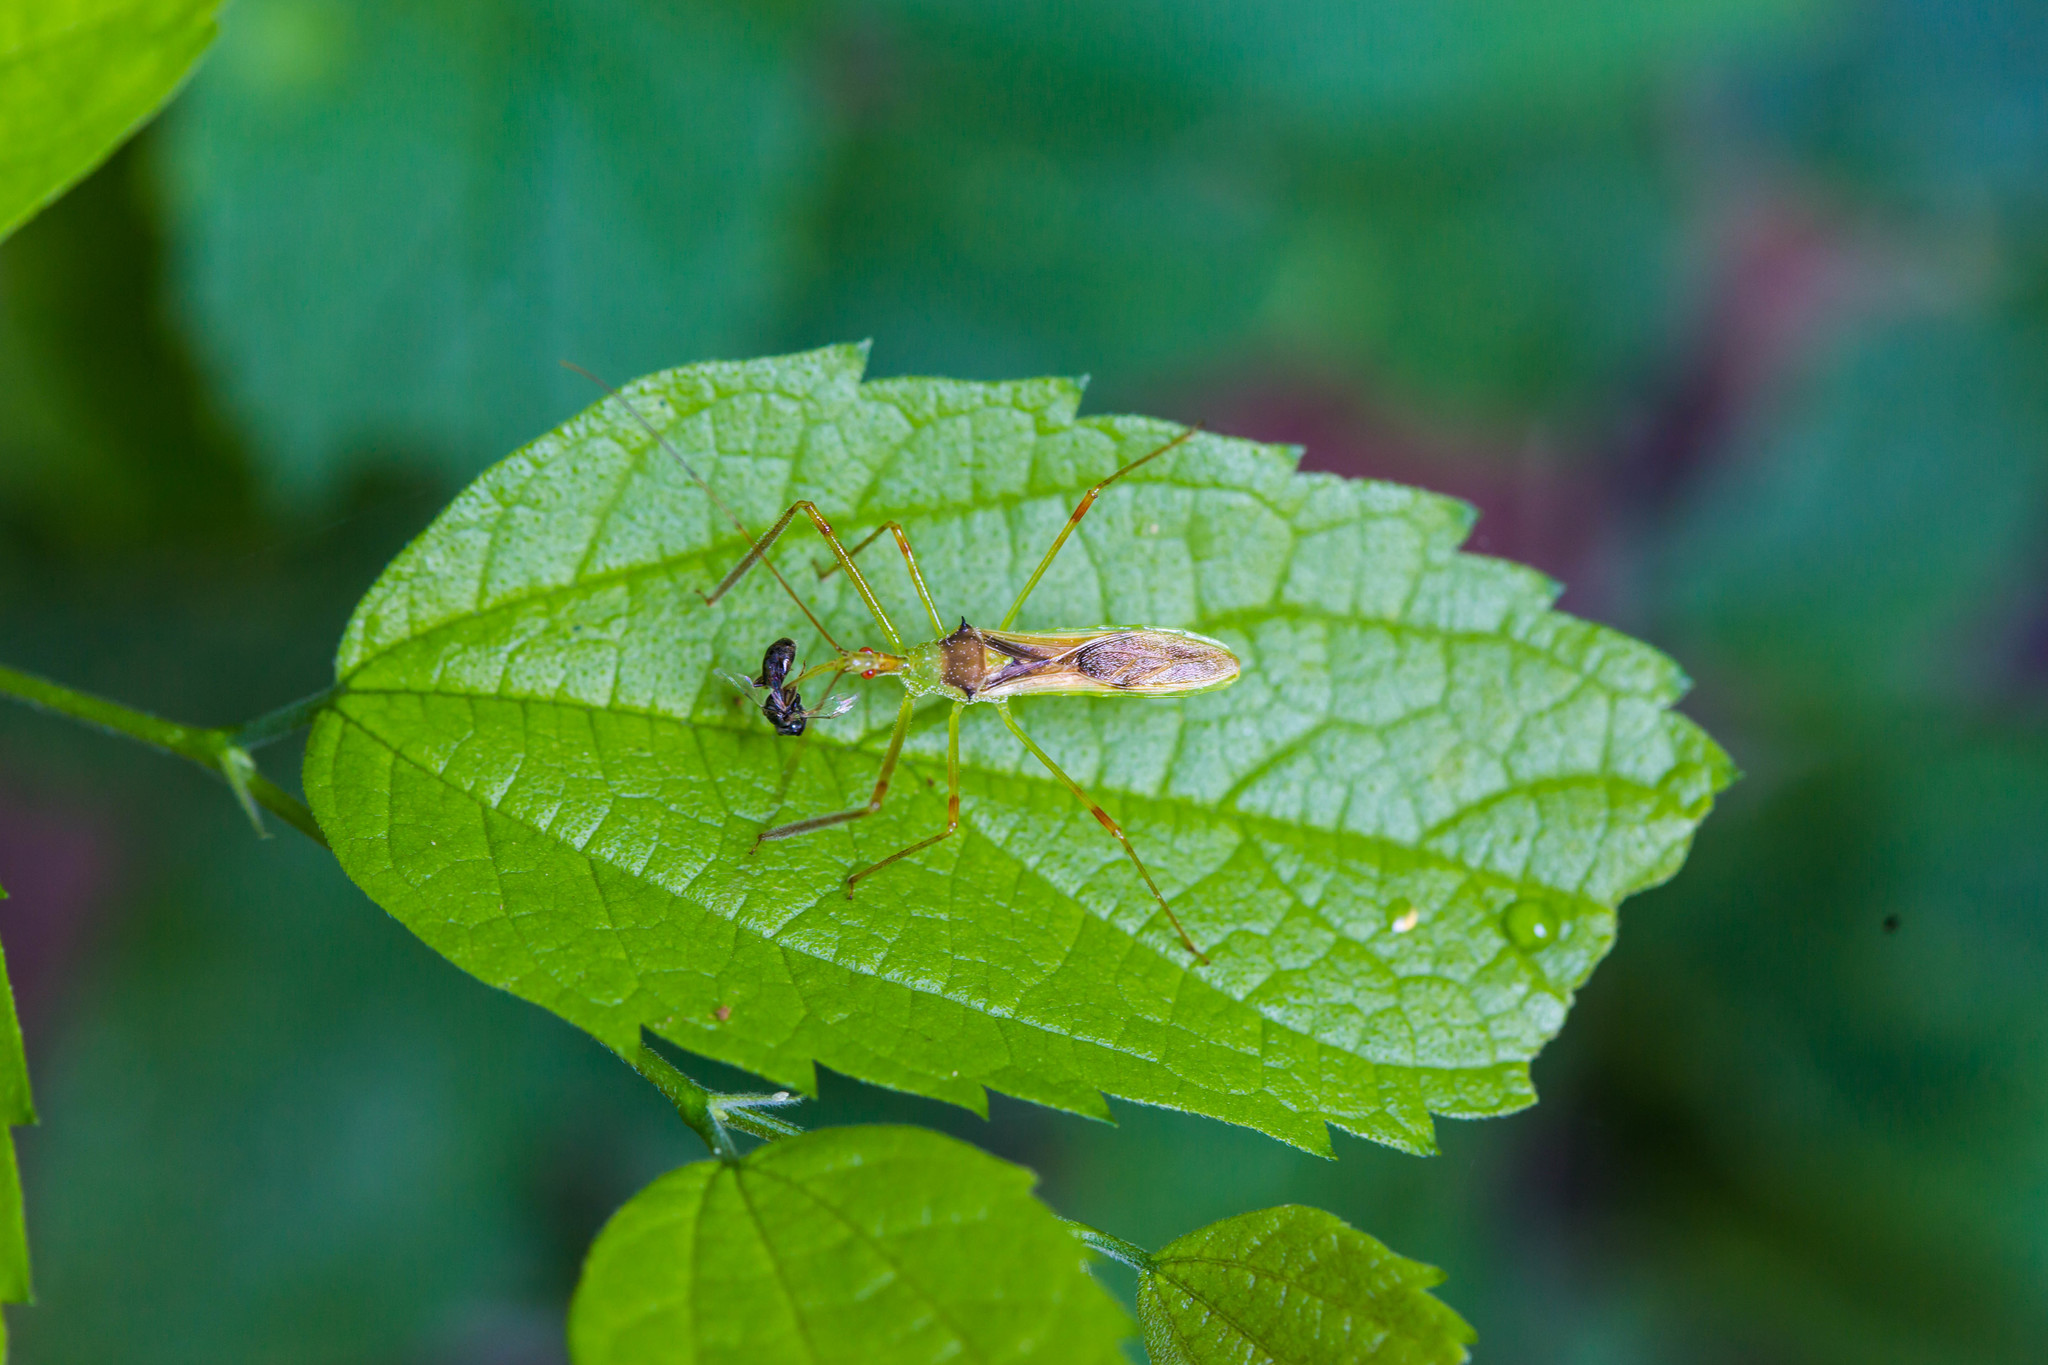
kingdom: Animalia
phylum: Arthropoda
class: Insecta
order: Hemiptera
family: Reduviidae
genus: Zelus
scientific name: Zelus luridus
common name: Pale green assassin bug
